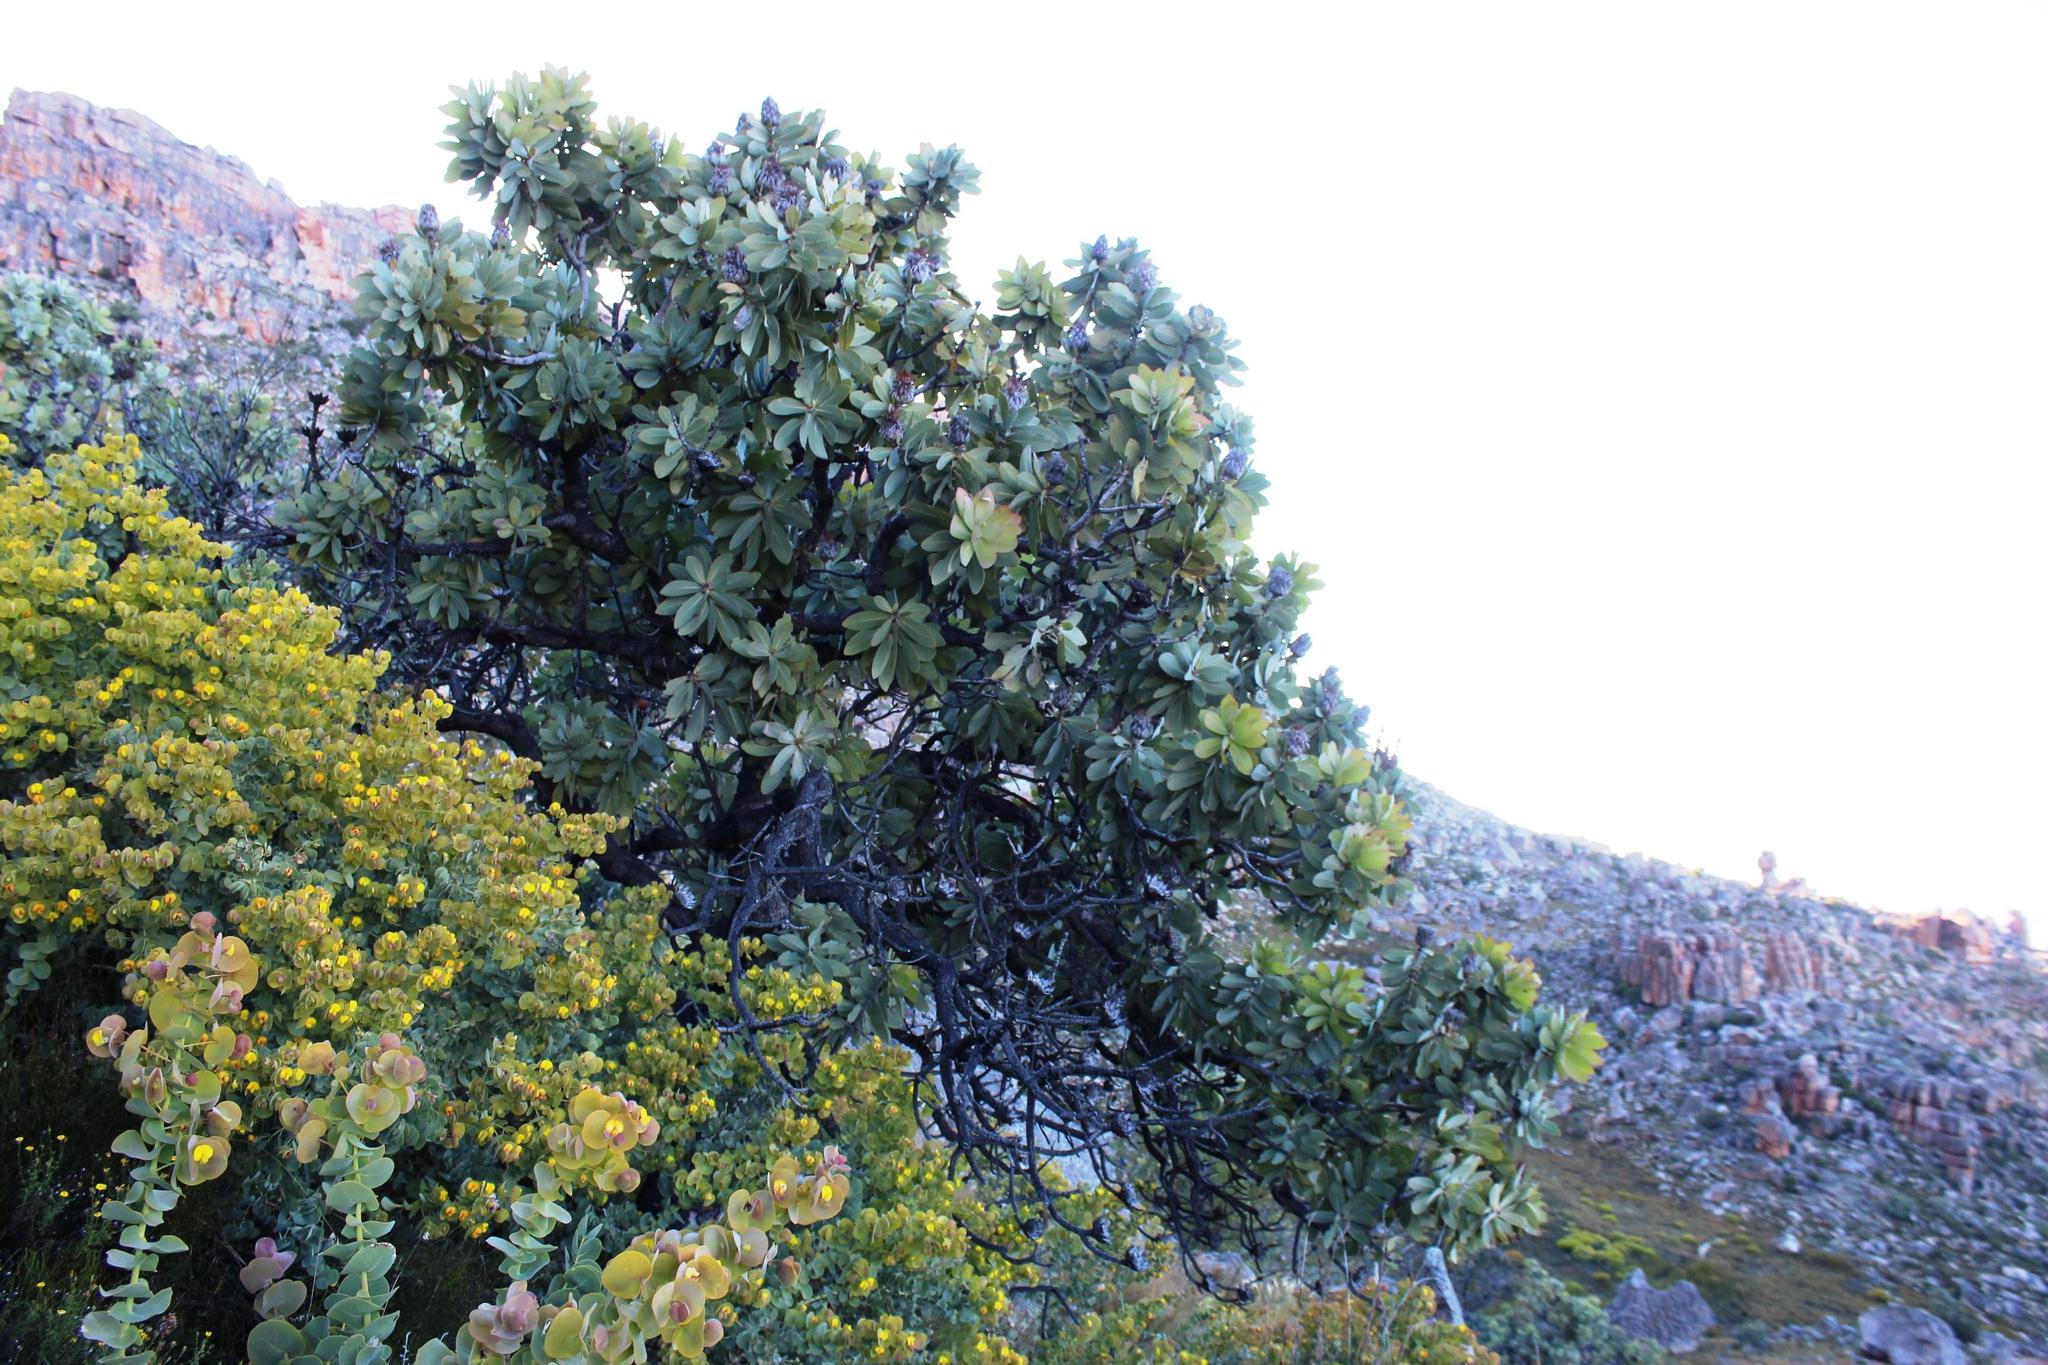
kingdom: Plantae
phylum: Tracheophyta
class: Magnoliopsida
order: Proteales
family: Proteaceae
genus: Protea
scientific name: Protea nitida
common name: Tree protea
